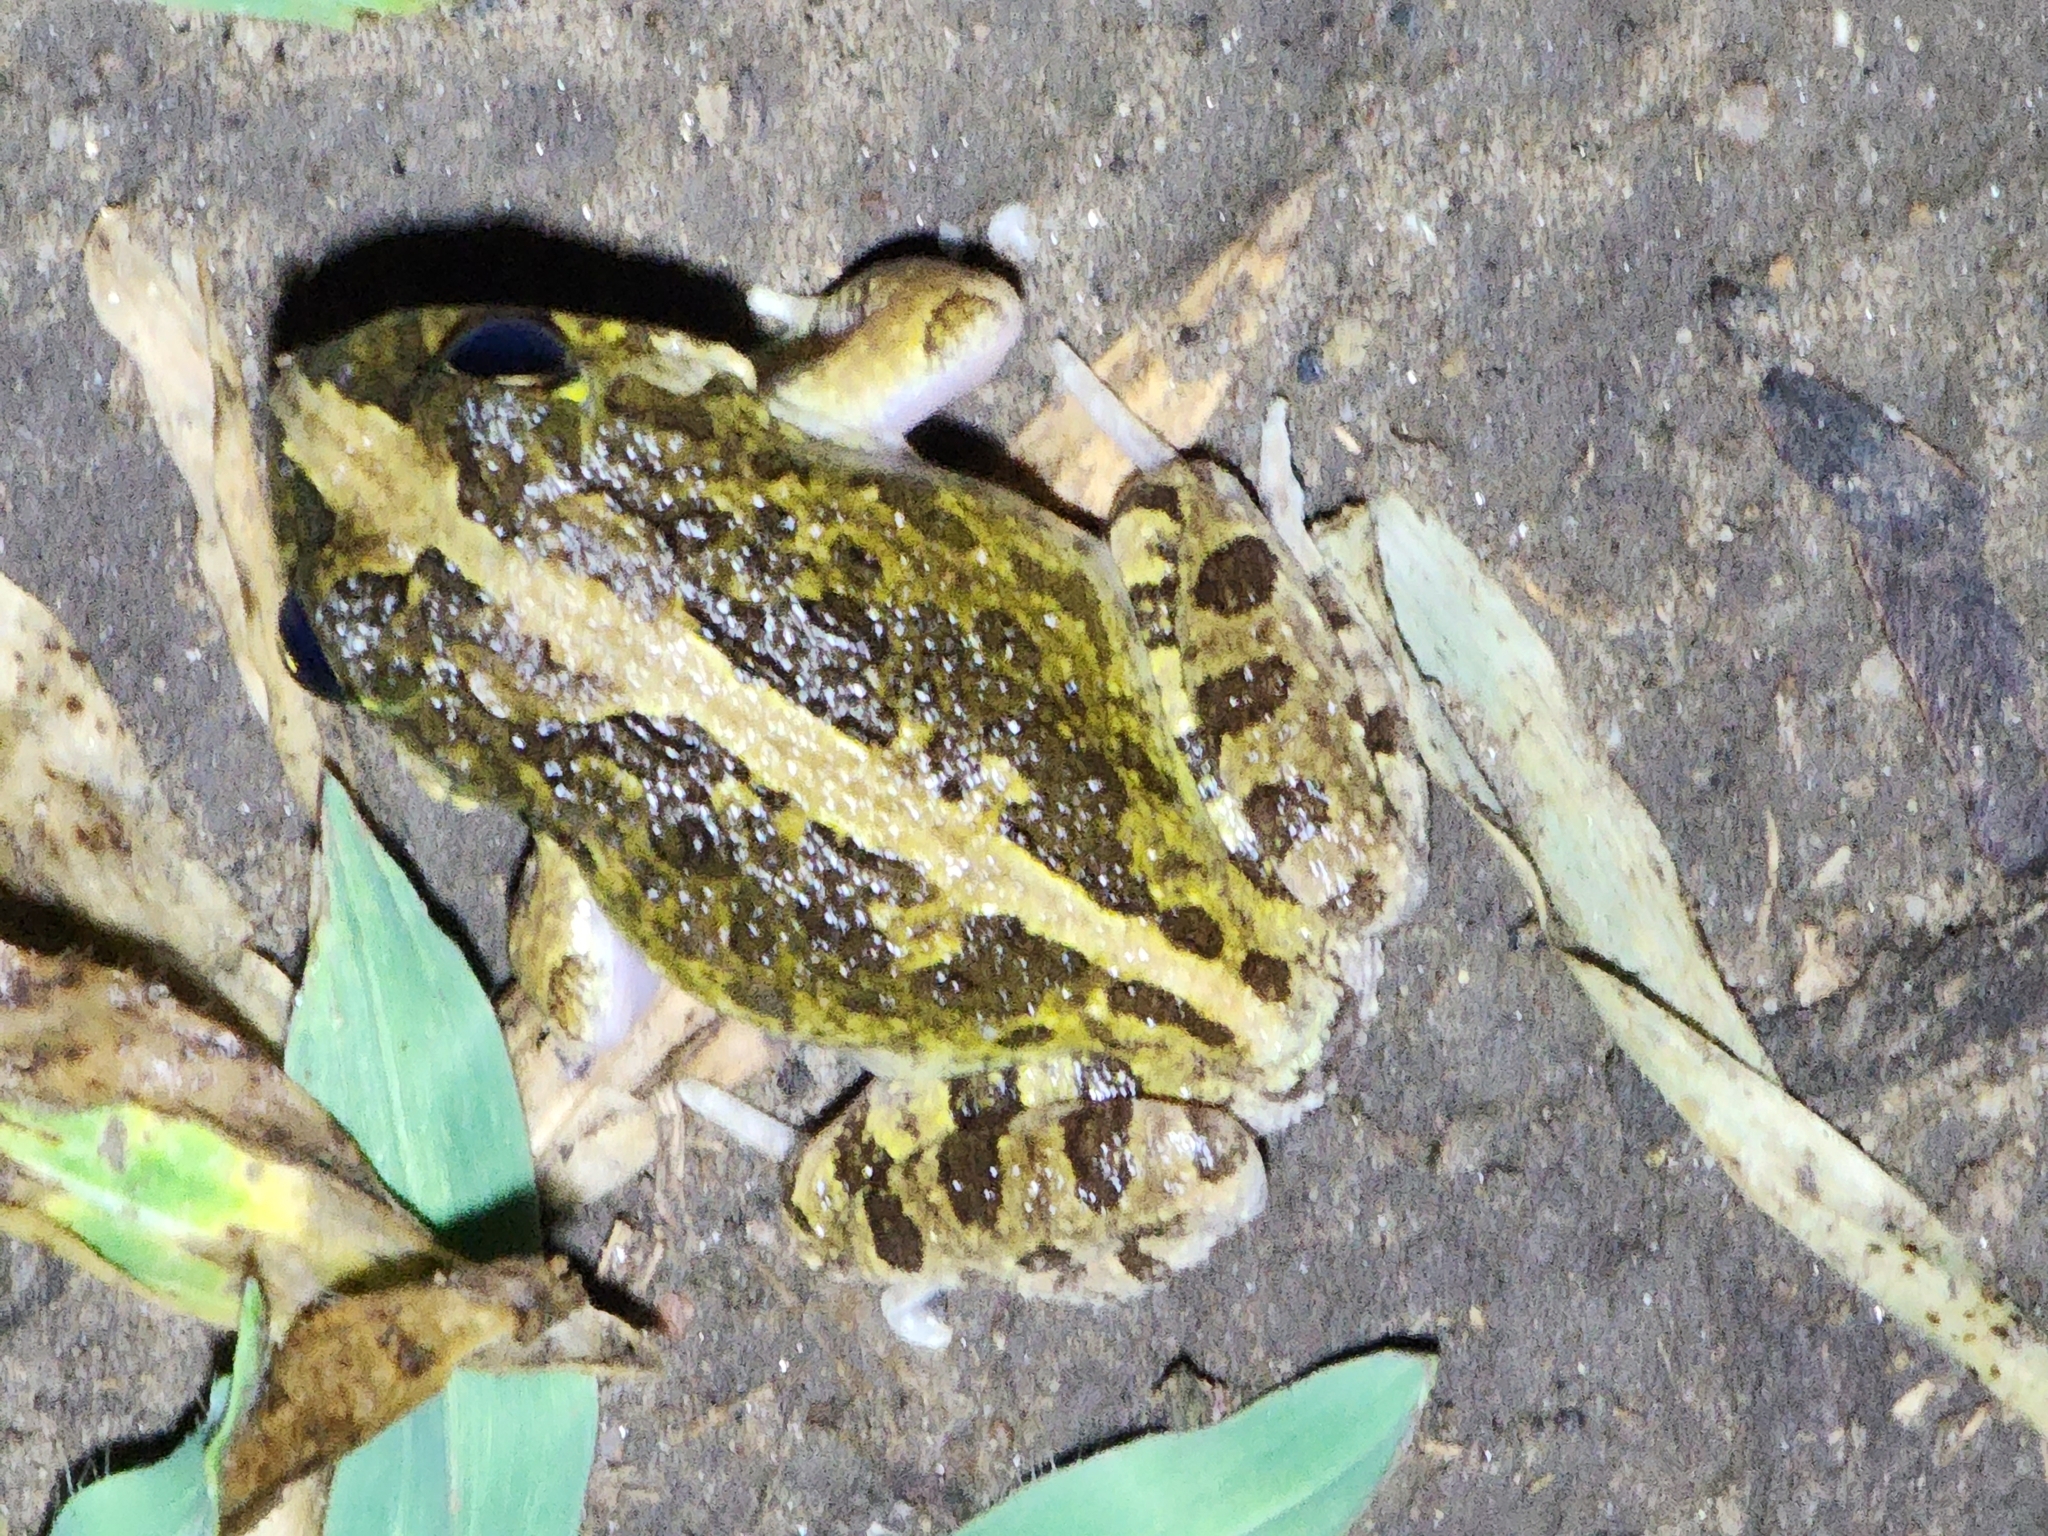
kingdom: Animalia
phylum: Chordata
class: Amphibia
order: Anura
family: Limnodynastidae
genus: Platyplectrum
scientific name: Platyplectrum ornatum
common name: Ornate burrowing frog
